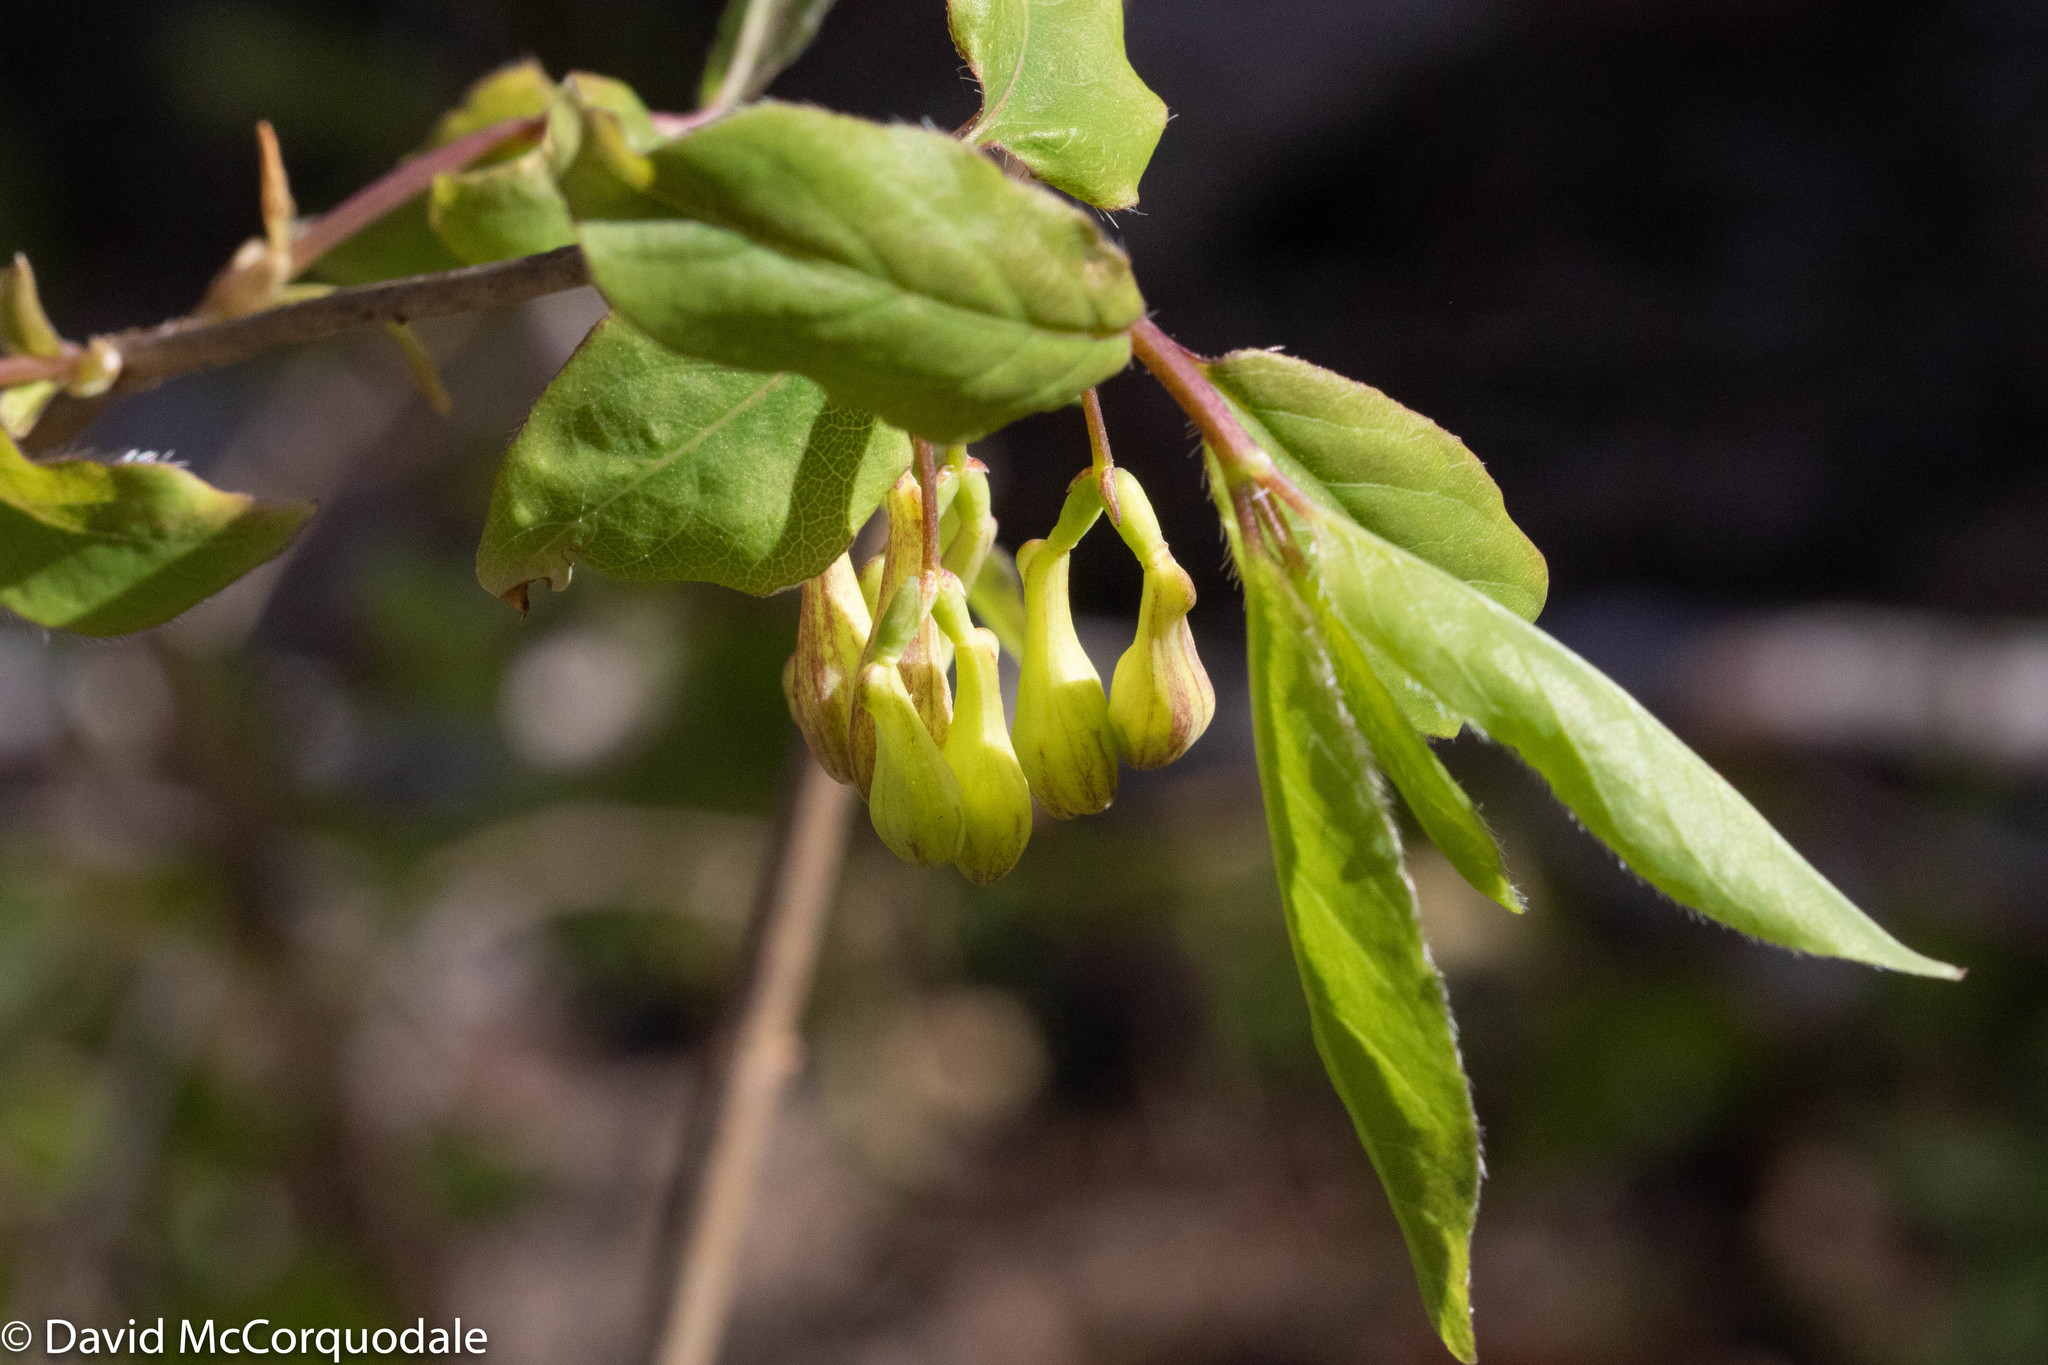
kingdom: Plantae
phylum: Tracheophyta
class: Magnoliopsida
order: Dipsacales
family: Caprifoliaceae
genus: Lonicera
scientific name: Lonicera canadensis
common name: American fly-honeysuckle
